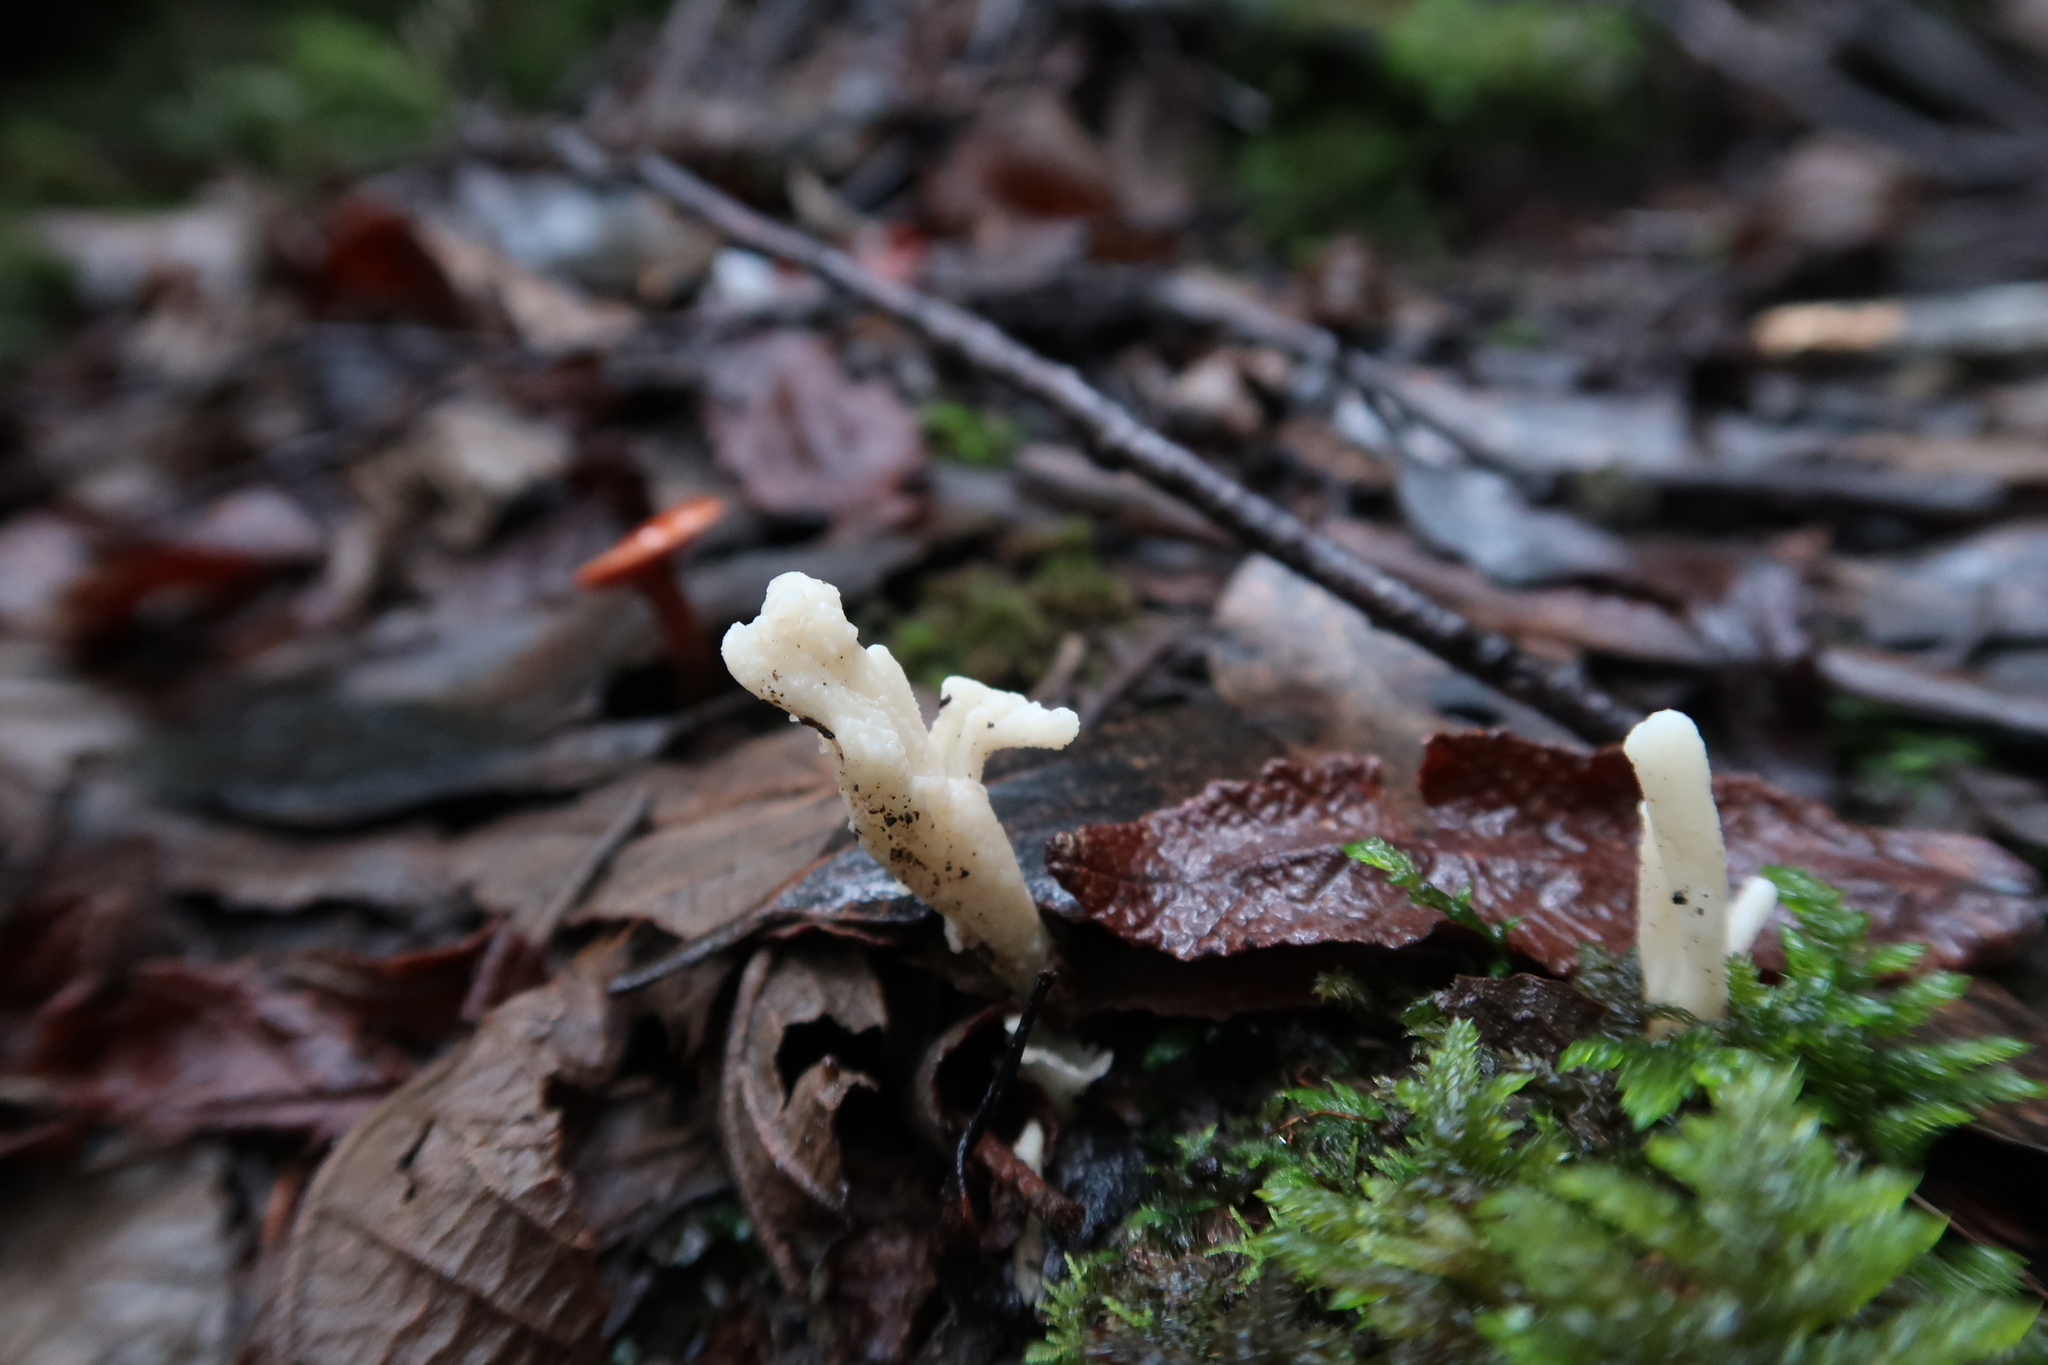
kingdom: Fungi
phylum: Basidiomycota
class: Agaricomycetes
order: Cantharellales
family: Hydnaceae
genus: Clavulina
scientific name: Clavulina subrugosa
